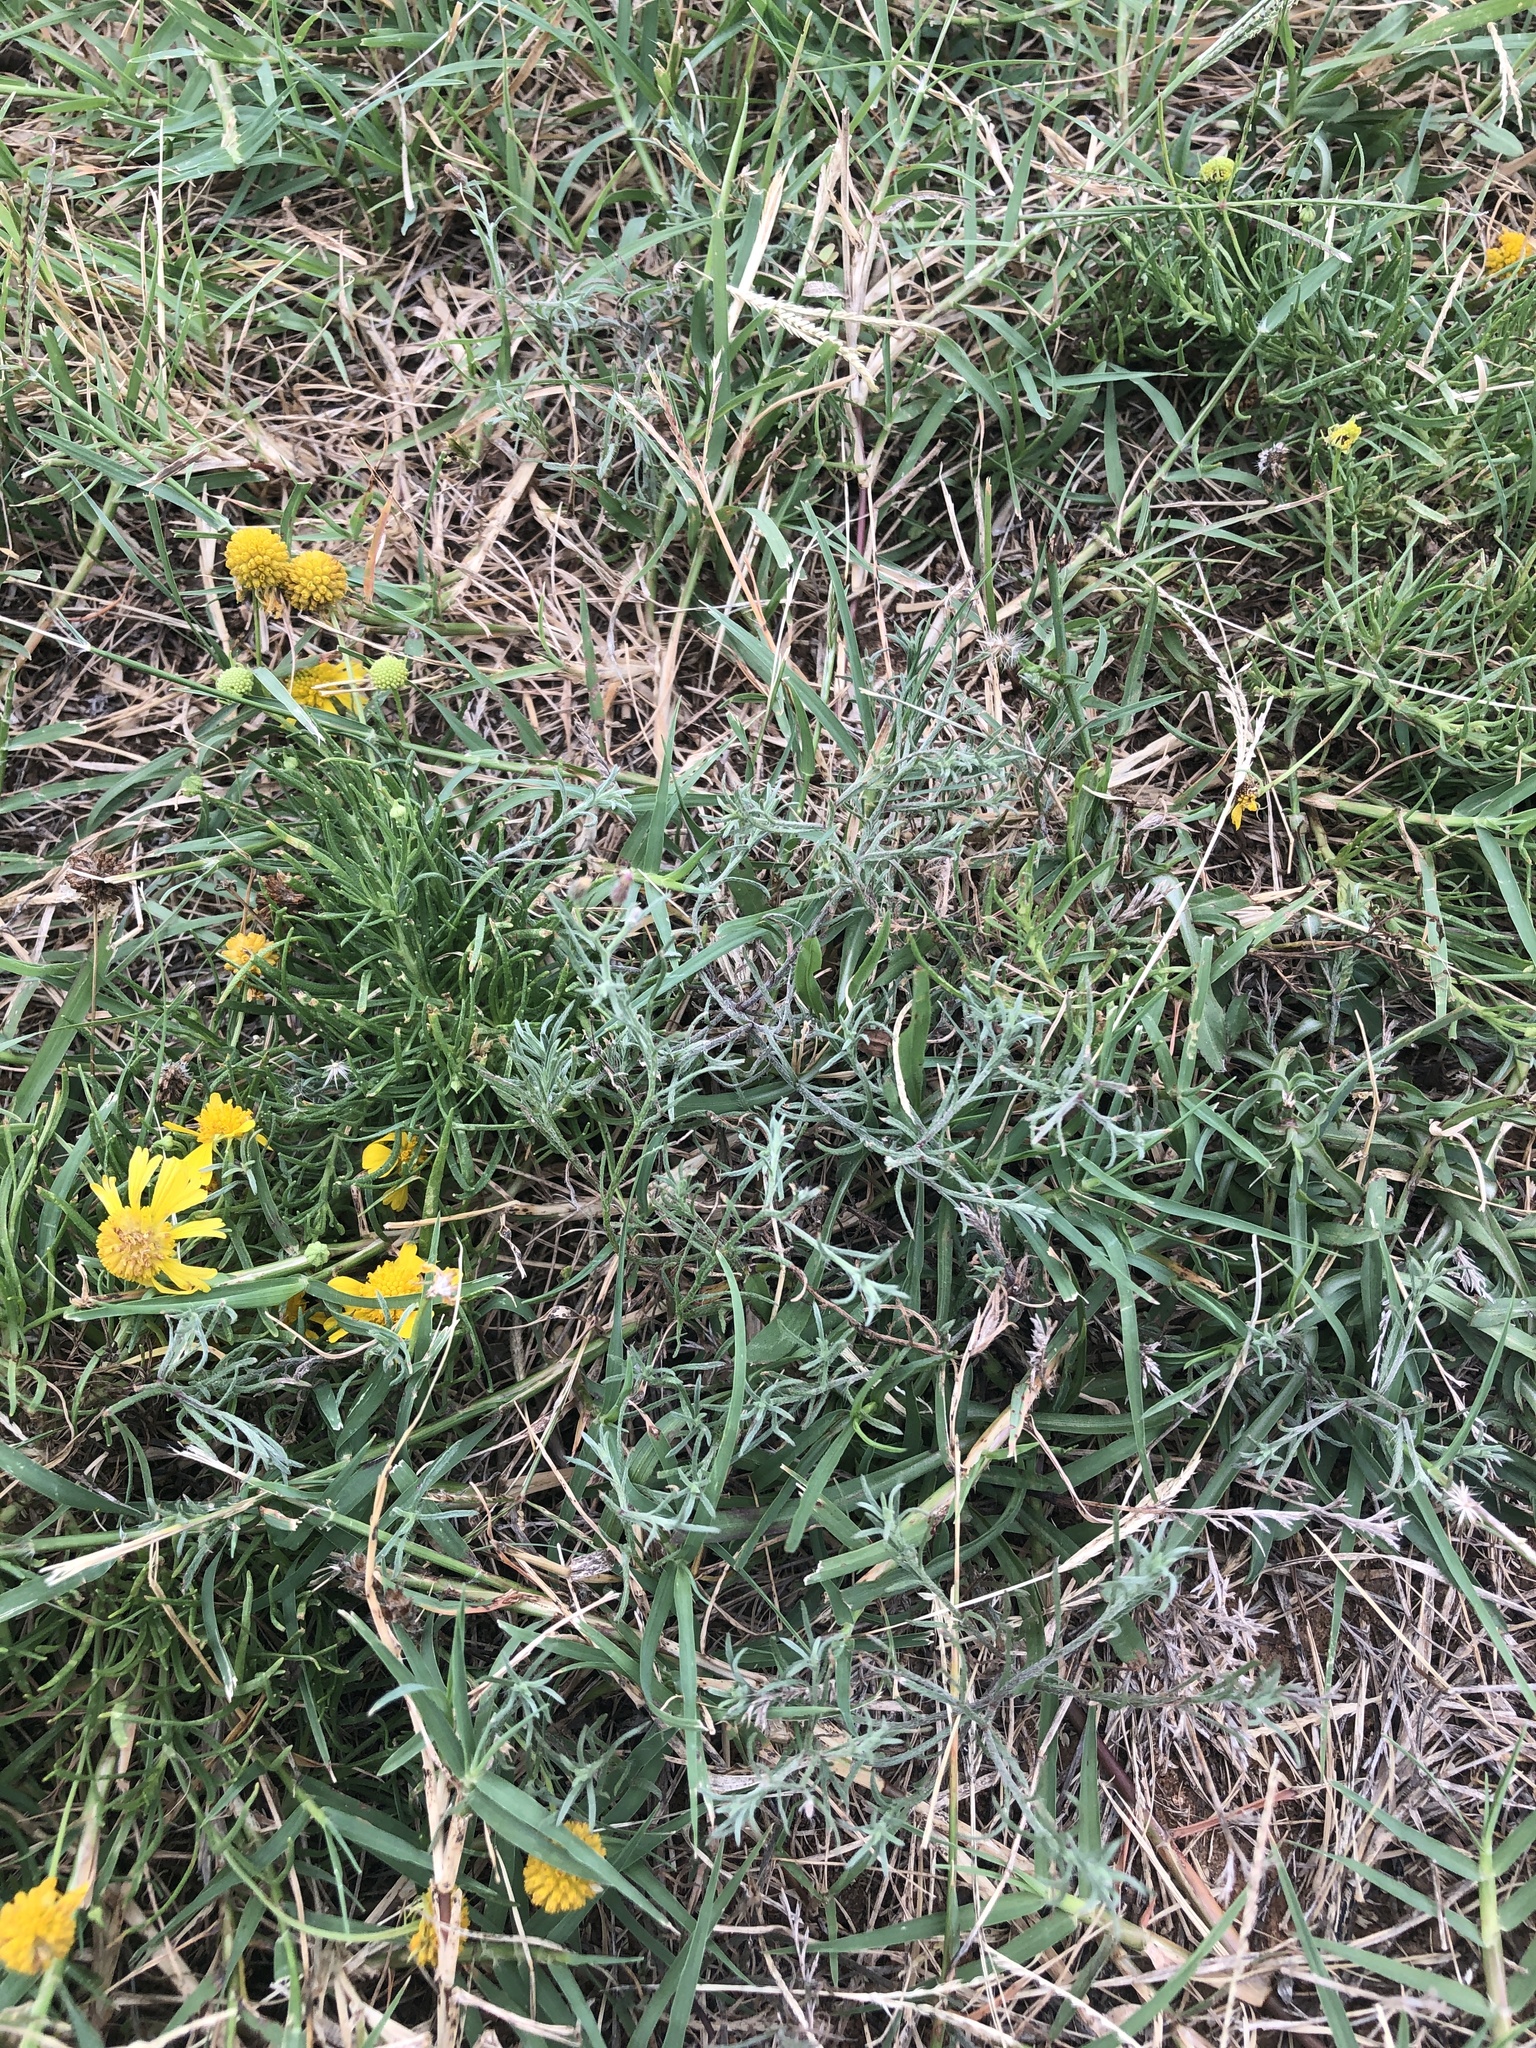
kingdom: Plantae
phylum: Tracheophyta
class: Magnoliopsida
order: Asterales
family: Asteraceae
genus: Erigeron
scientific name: Erigeron divaricatus
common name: Dwarf conyza
